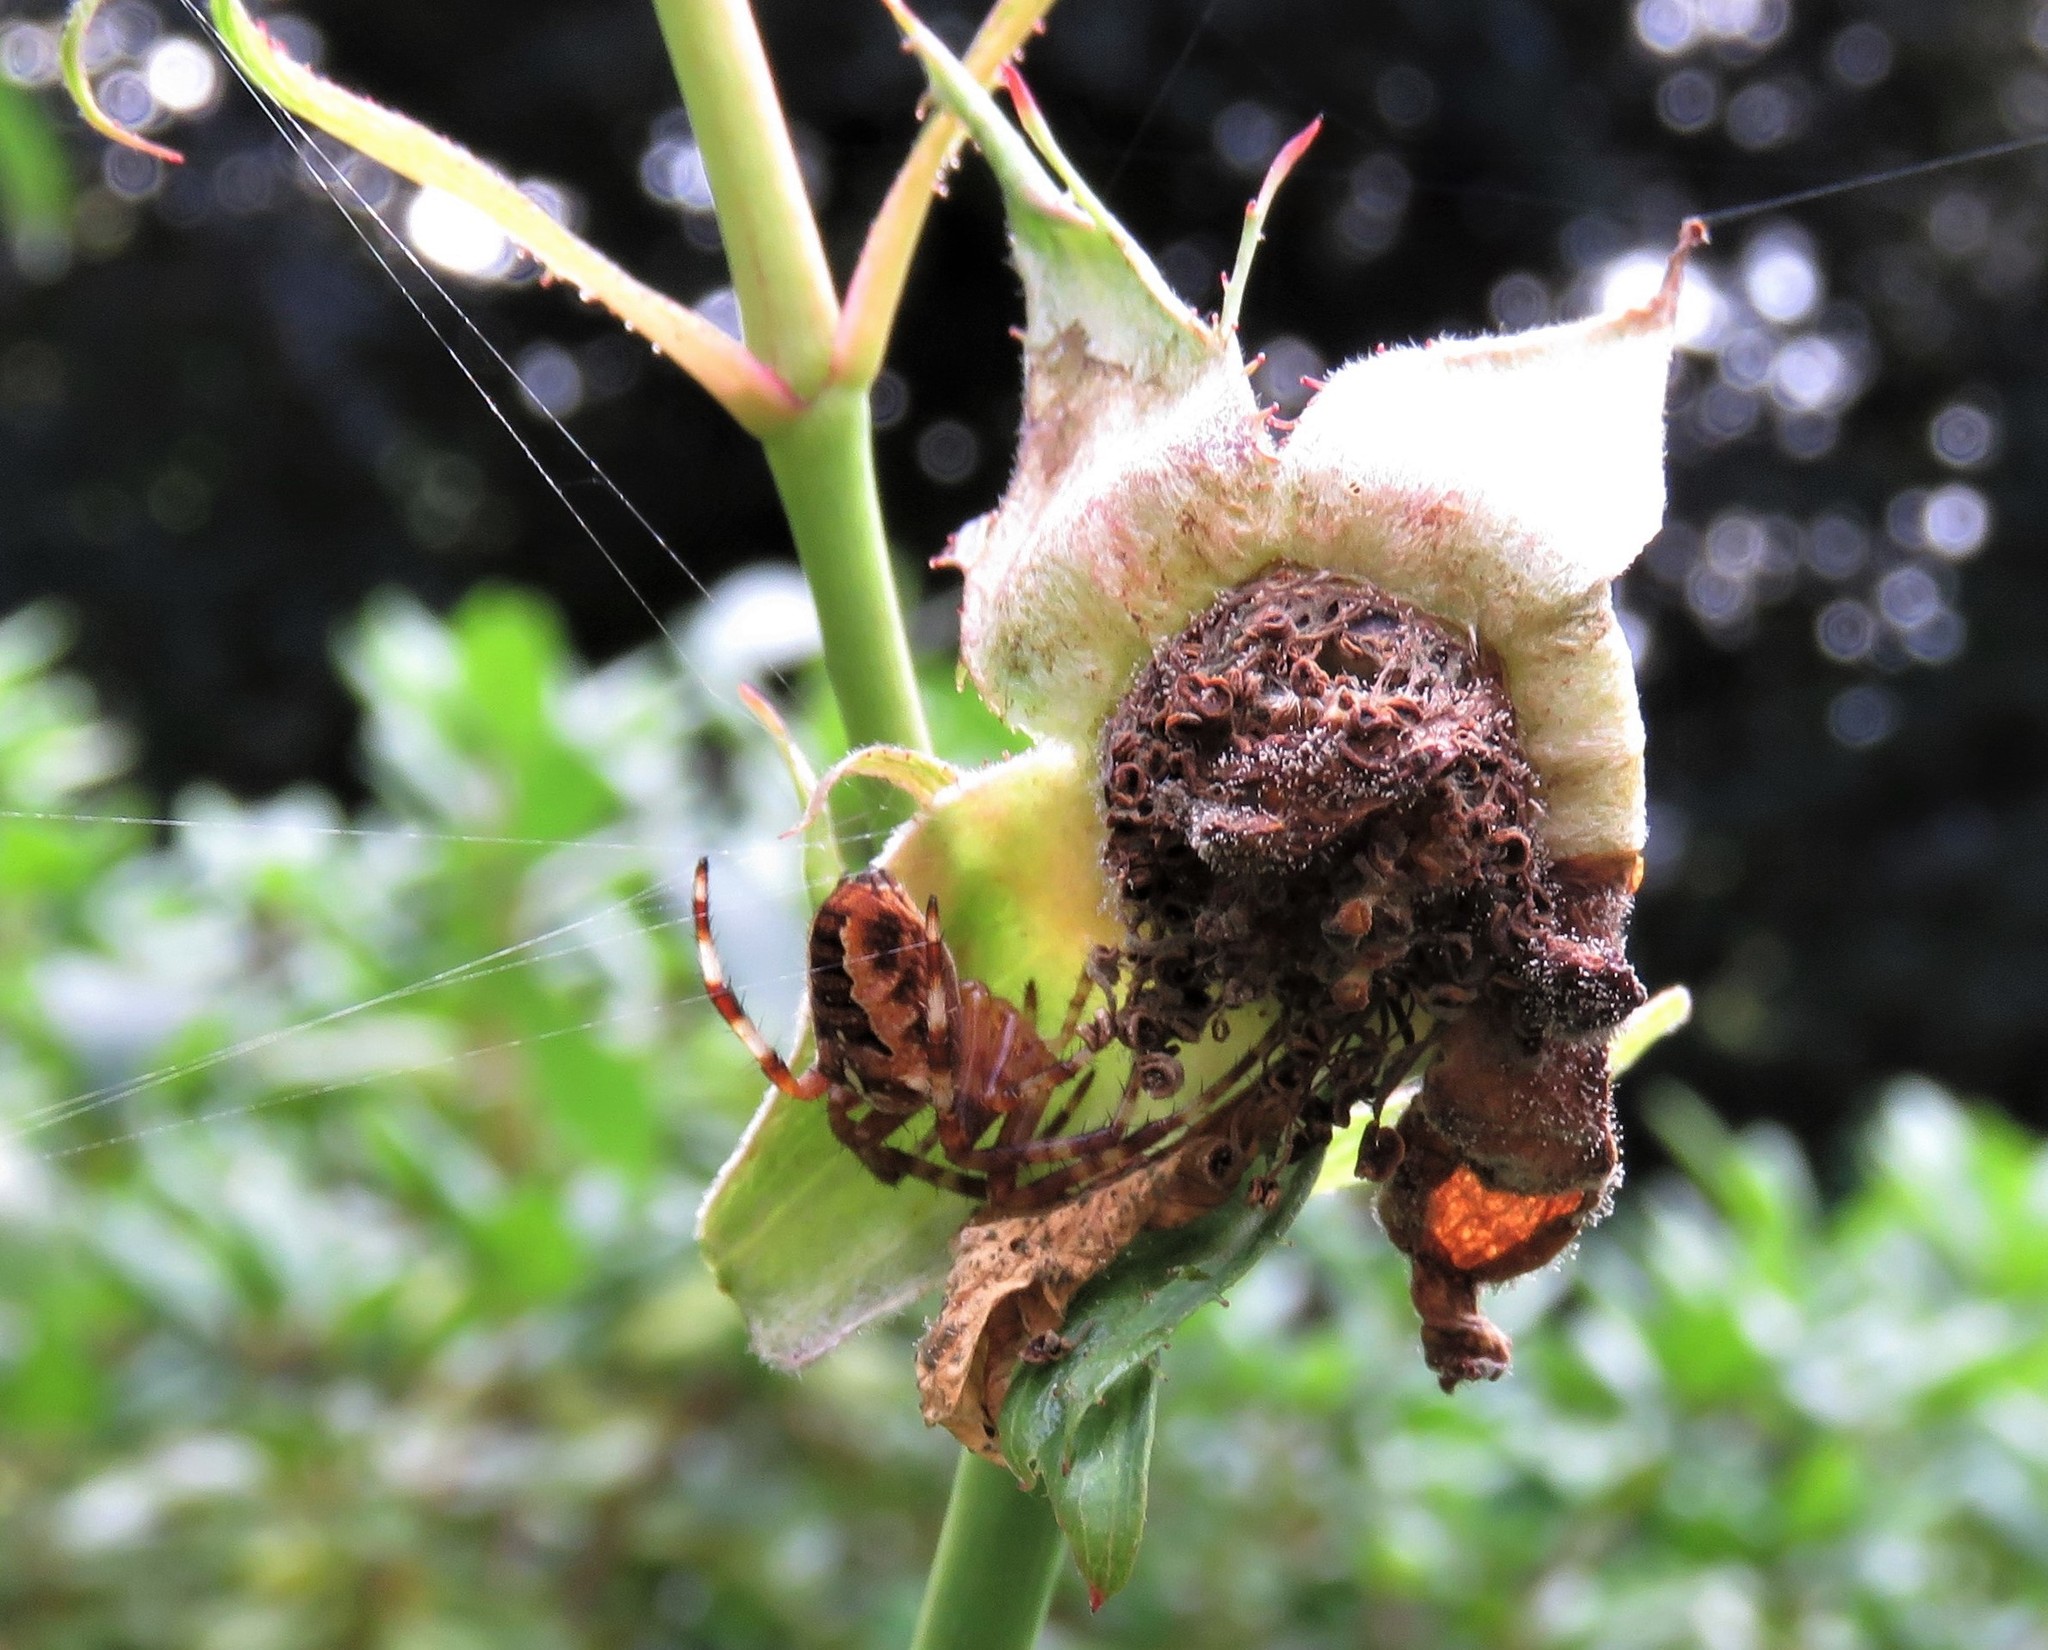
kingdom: Animalia
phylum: Arthropoda
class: Arachnida
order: Araneae
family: Araneidae
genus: Araneus
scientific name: Araneus diadematus
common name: Cross orbweaver
